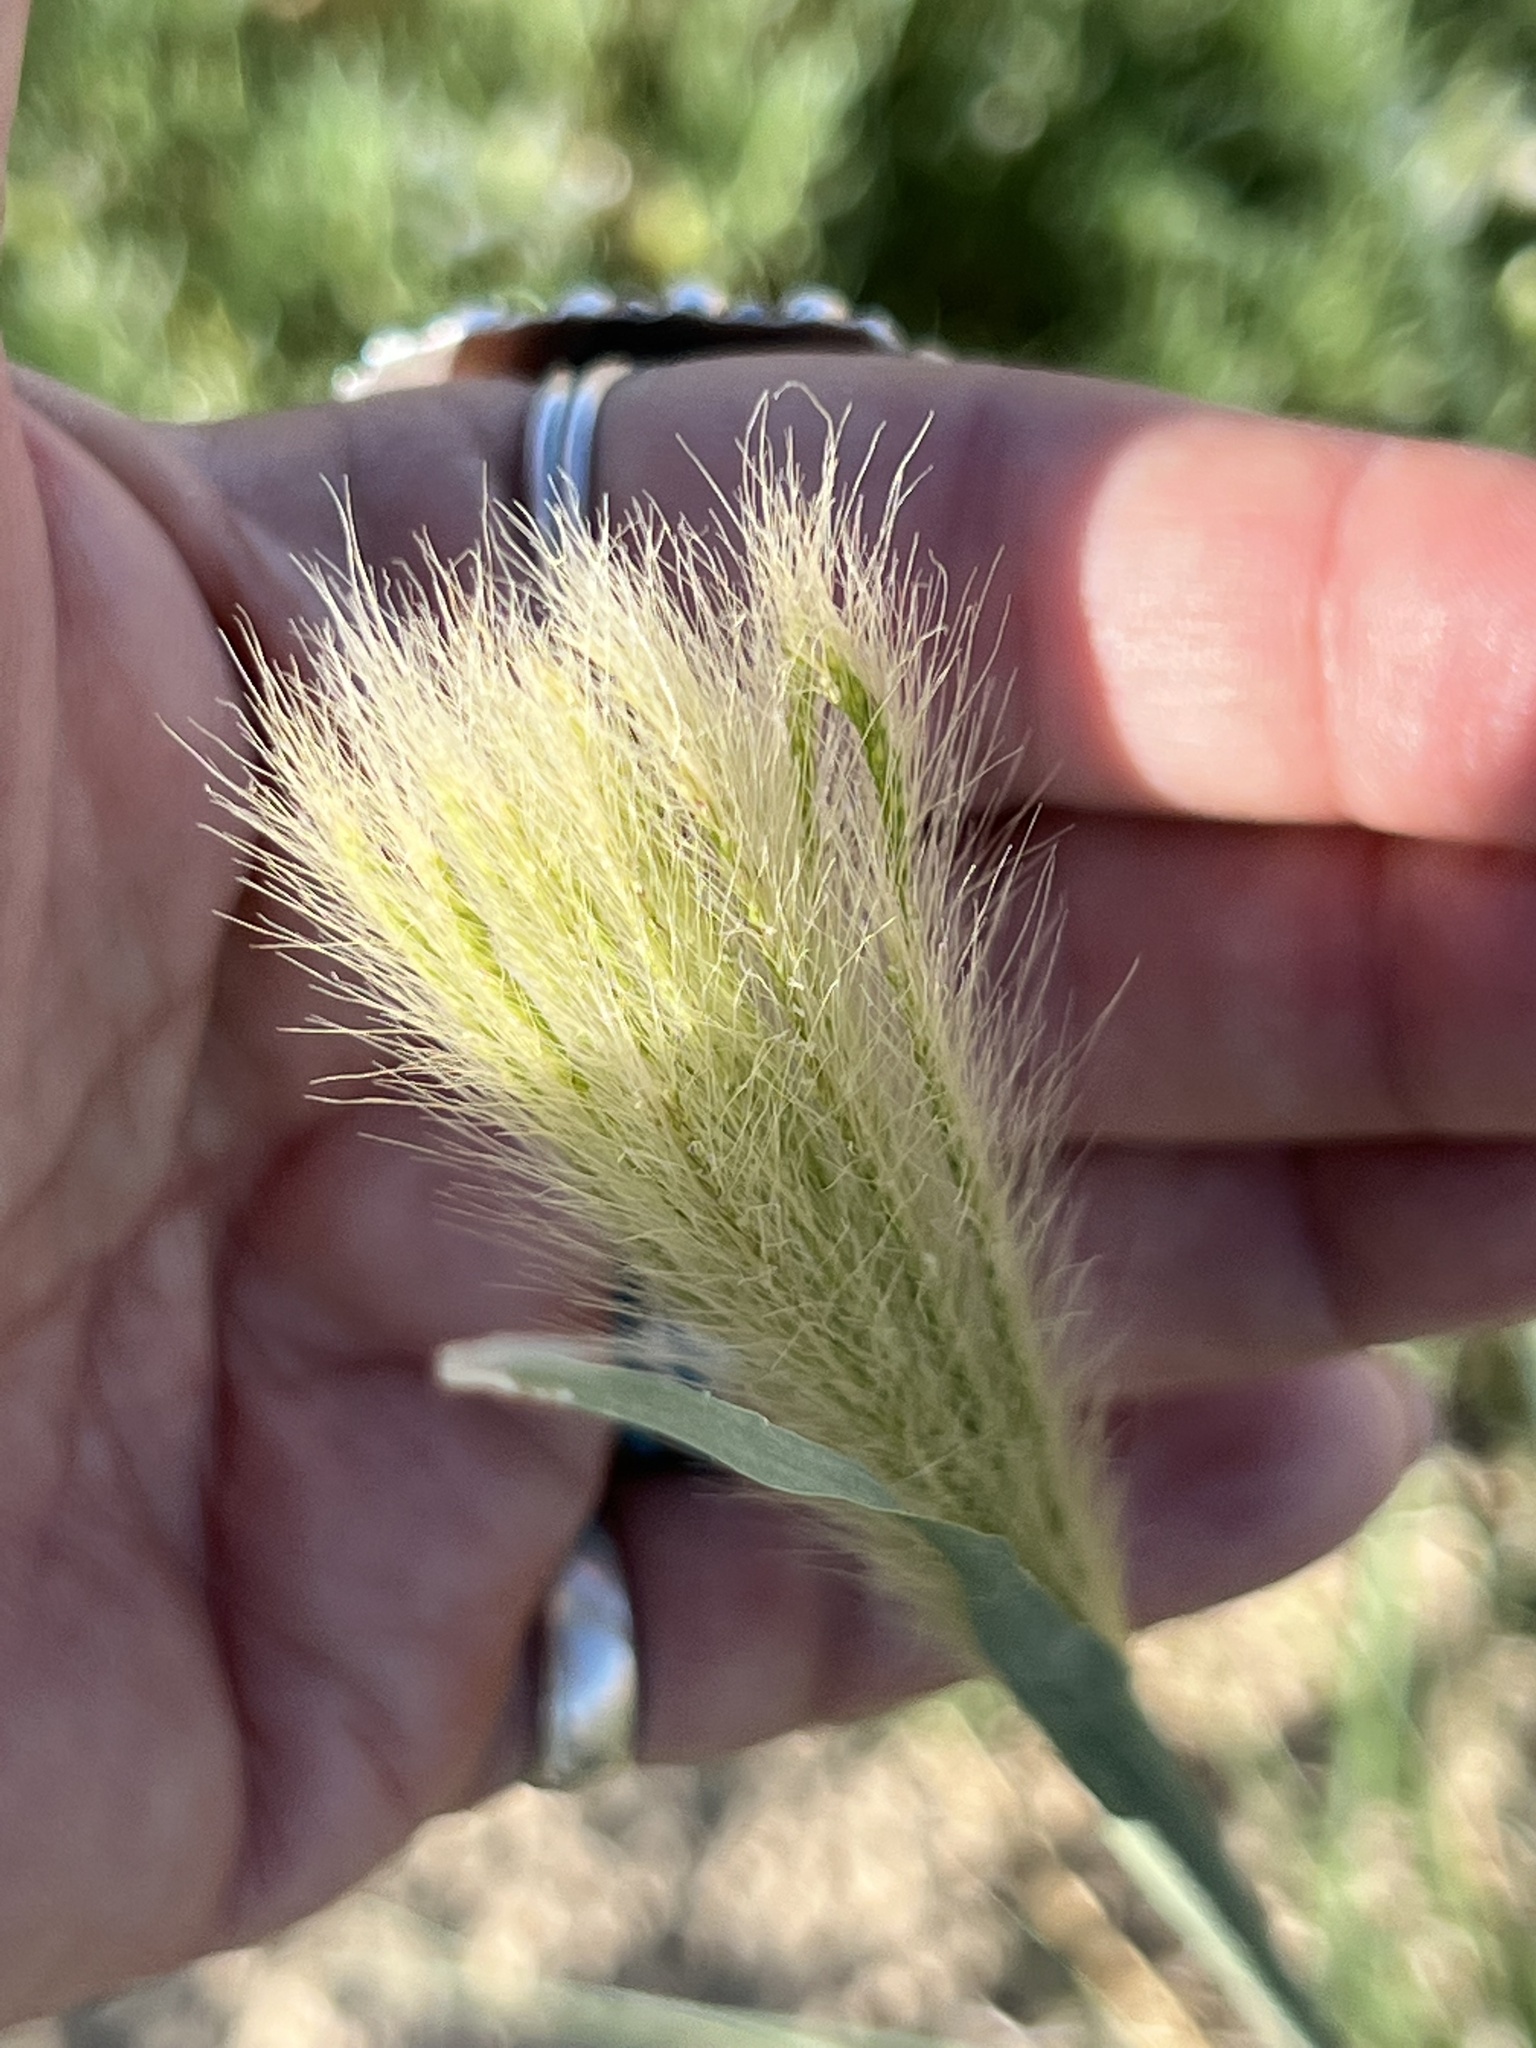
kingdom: Plantae
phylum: Tracheophyta
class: Liliopsida
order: Poales
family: Poaceae
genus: Leptochloa
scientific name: Leptochloa crinita
